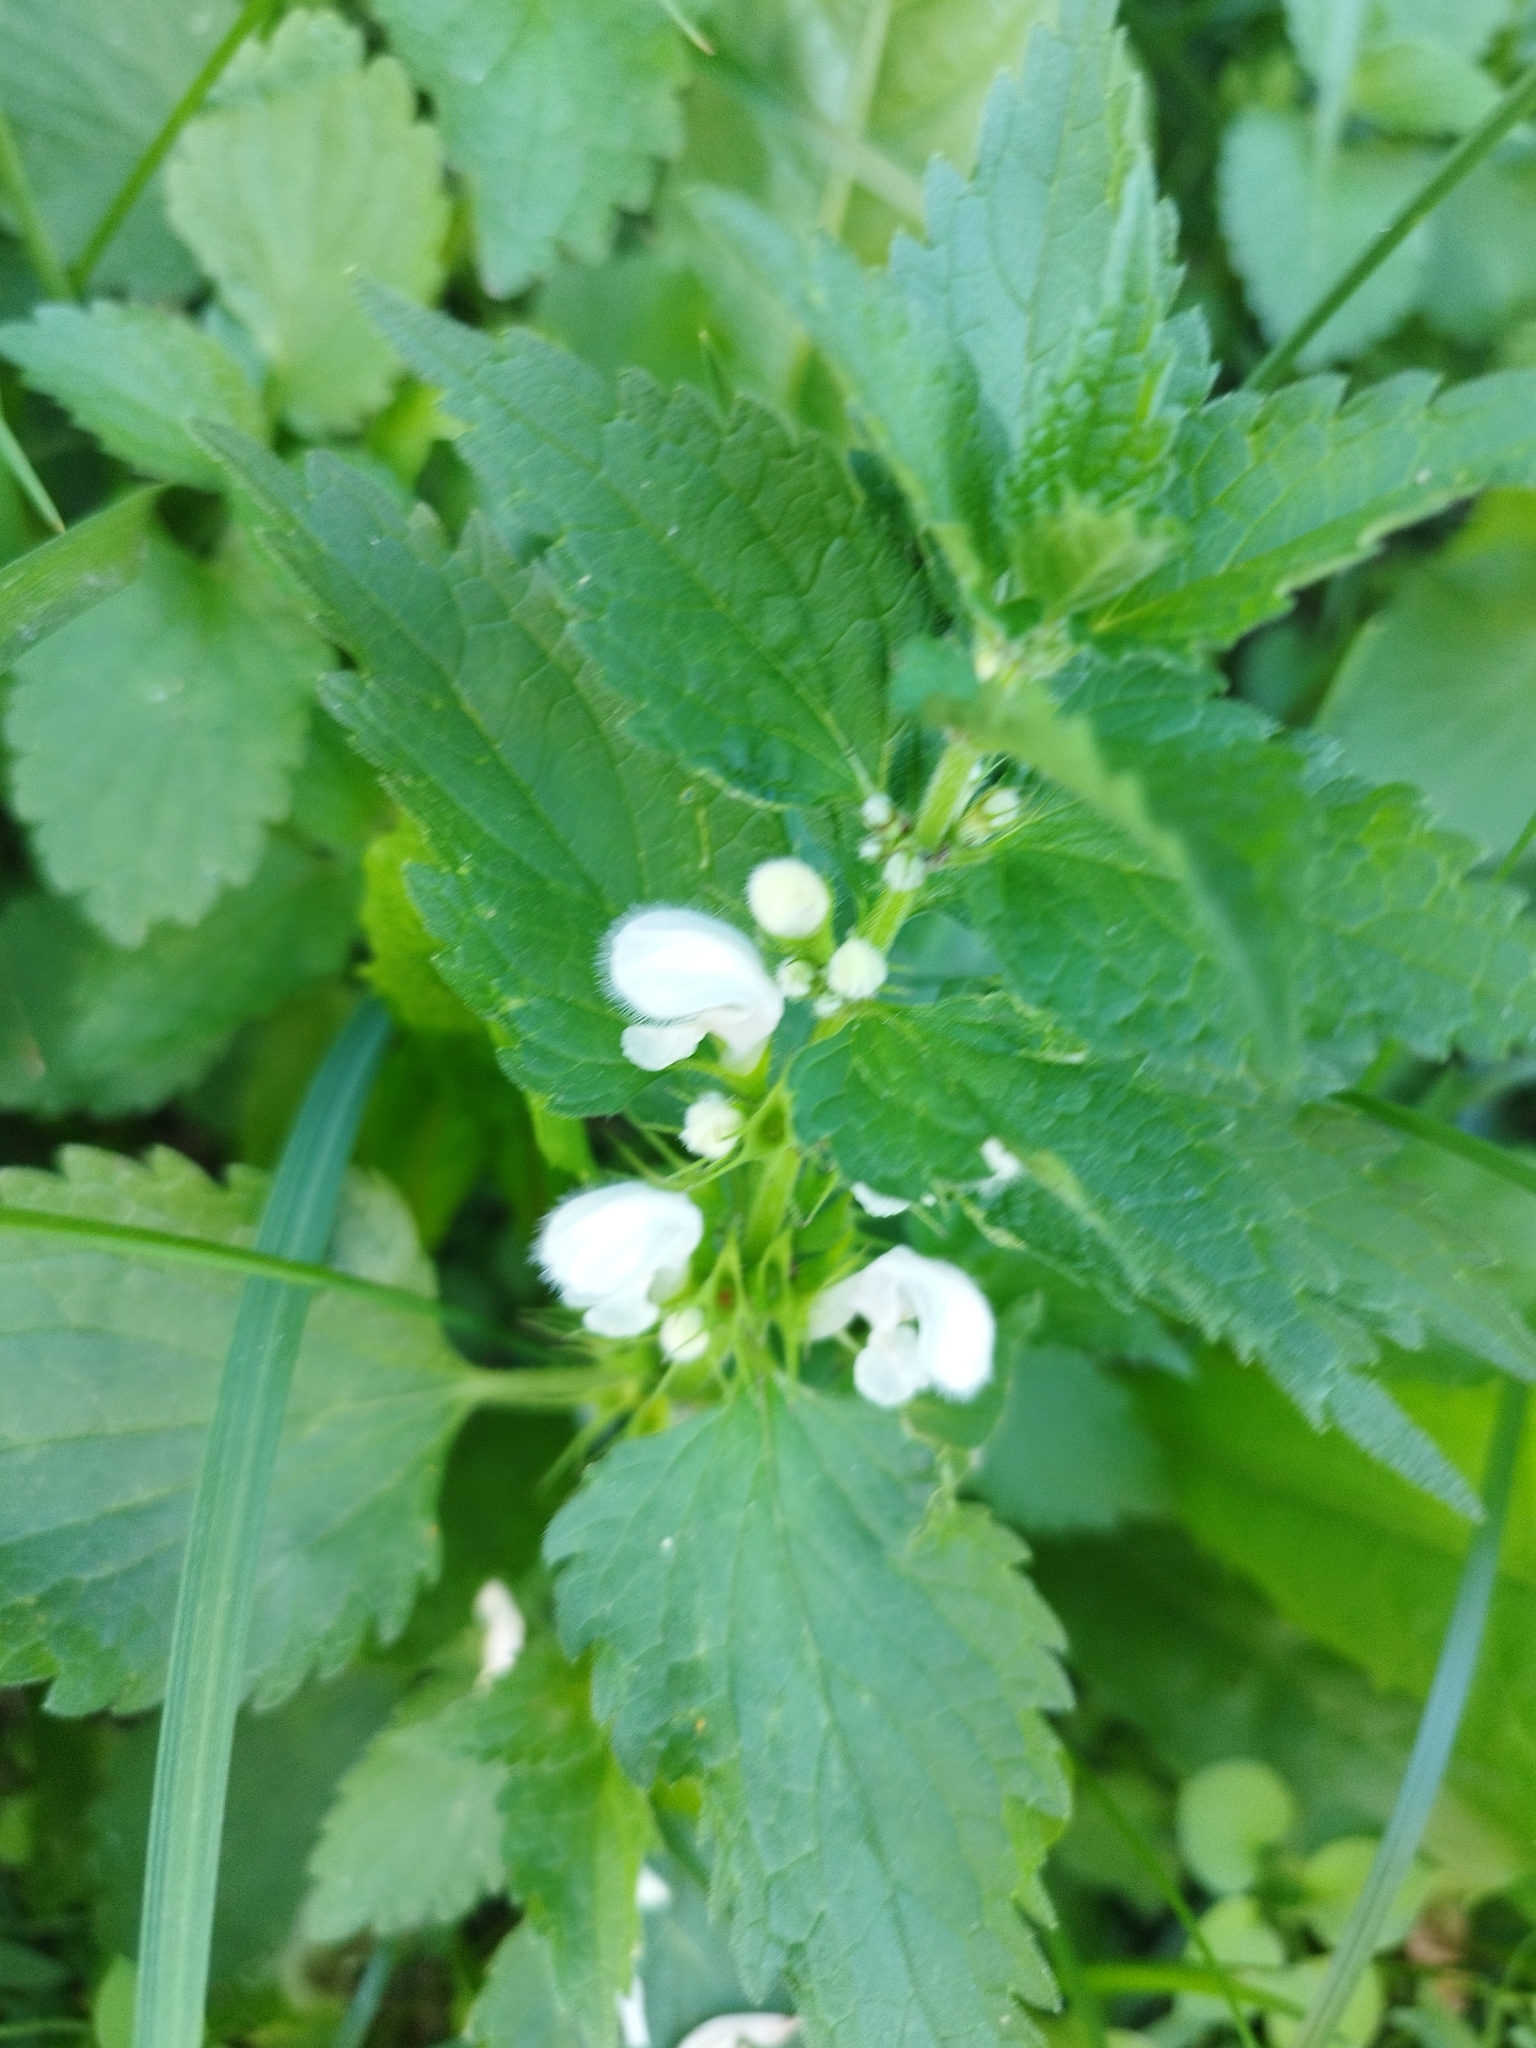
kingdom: Plantae
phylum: Tracheophyta
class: Magnoliopsida
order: Lamiales
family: Lamiaceae
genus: Lamium
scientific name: Lamium album
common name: White dead-nettle
